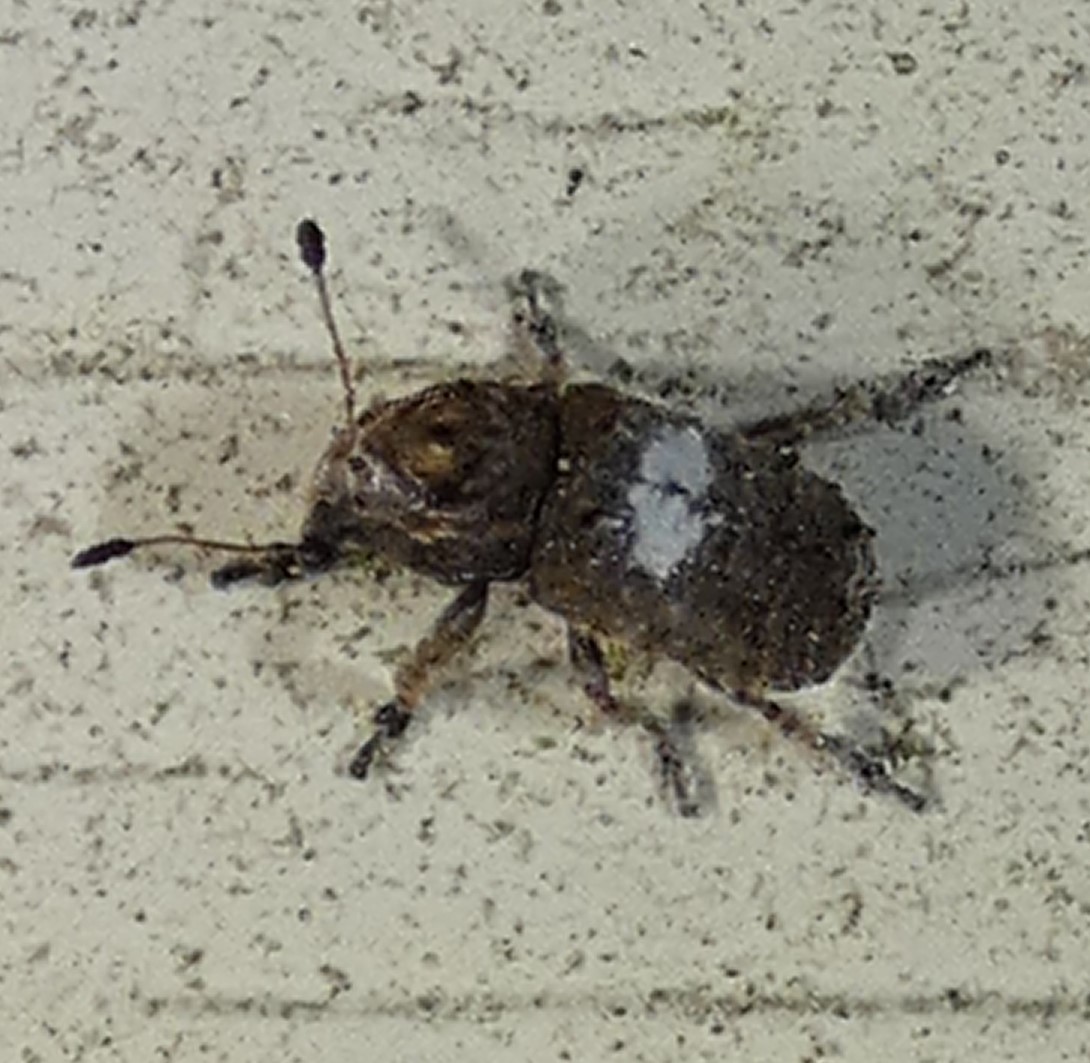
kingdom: Animalia
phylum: Arthropoda
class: Insecta
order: Coleoptera
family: Anthribidae
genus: Toxonotus
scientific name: Toxonotus cornutus
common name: Fungus weevil
